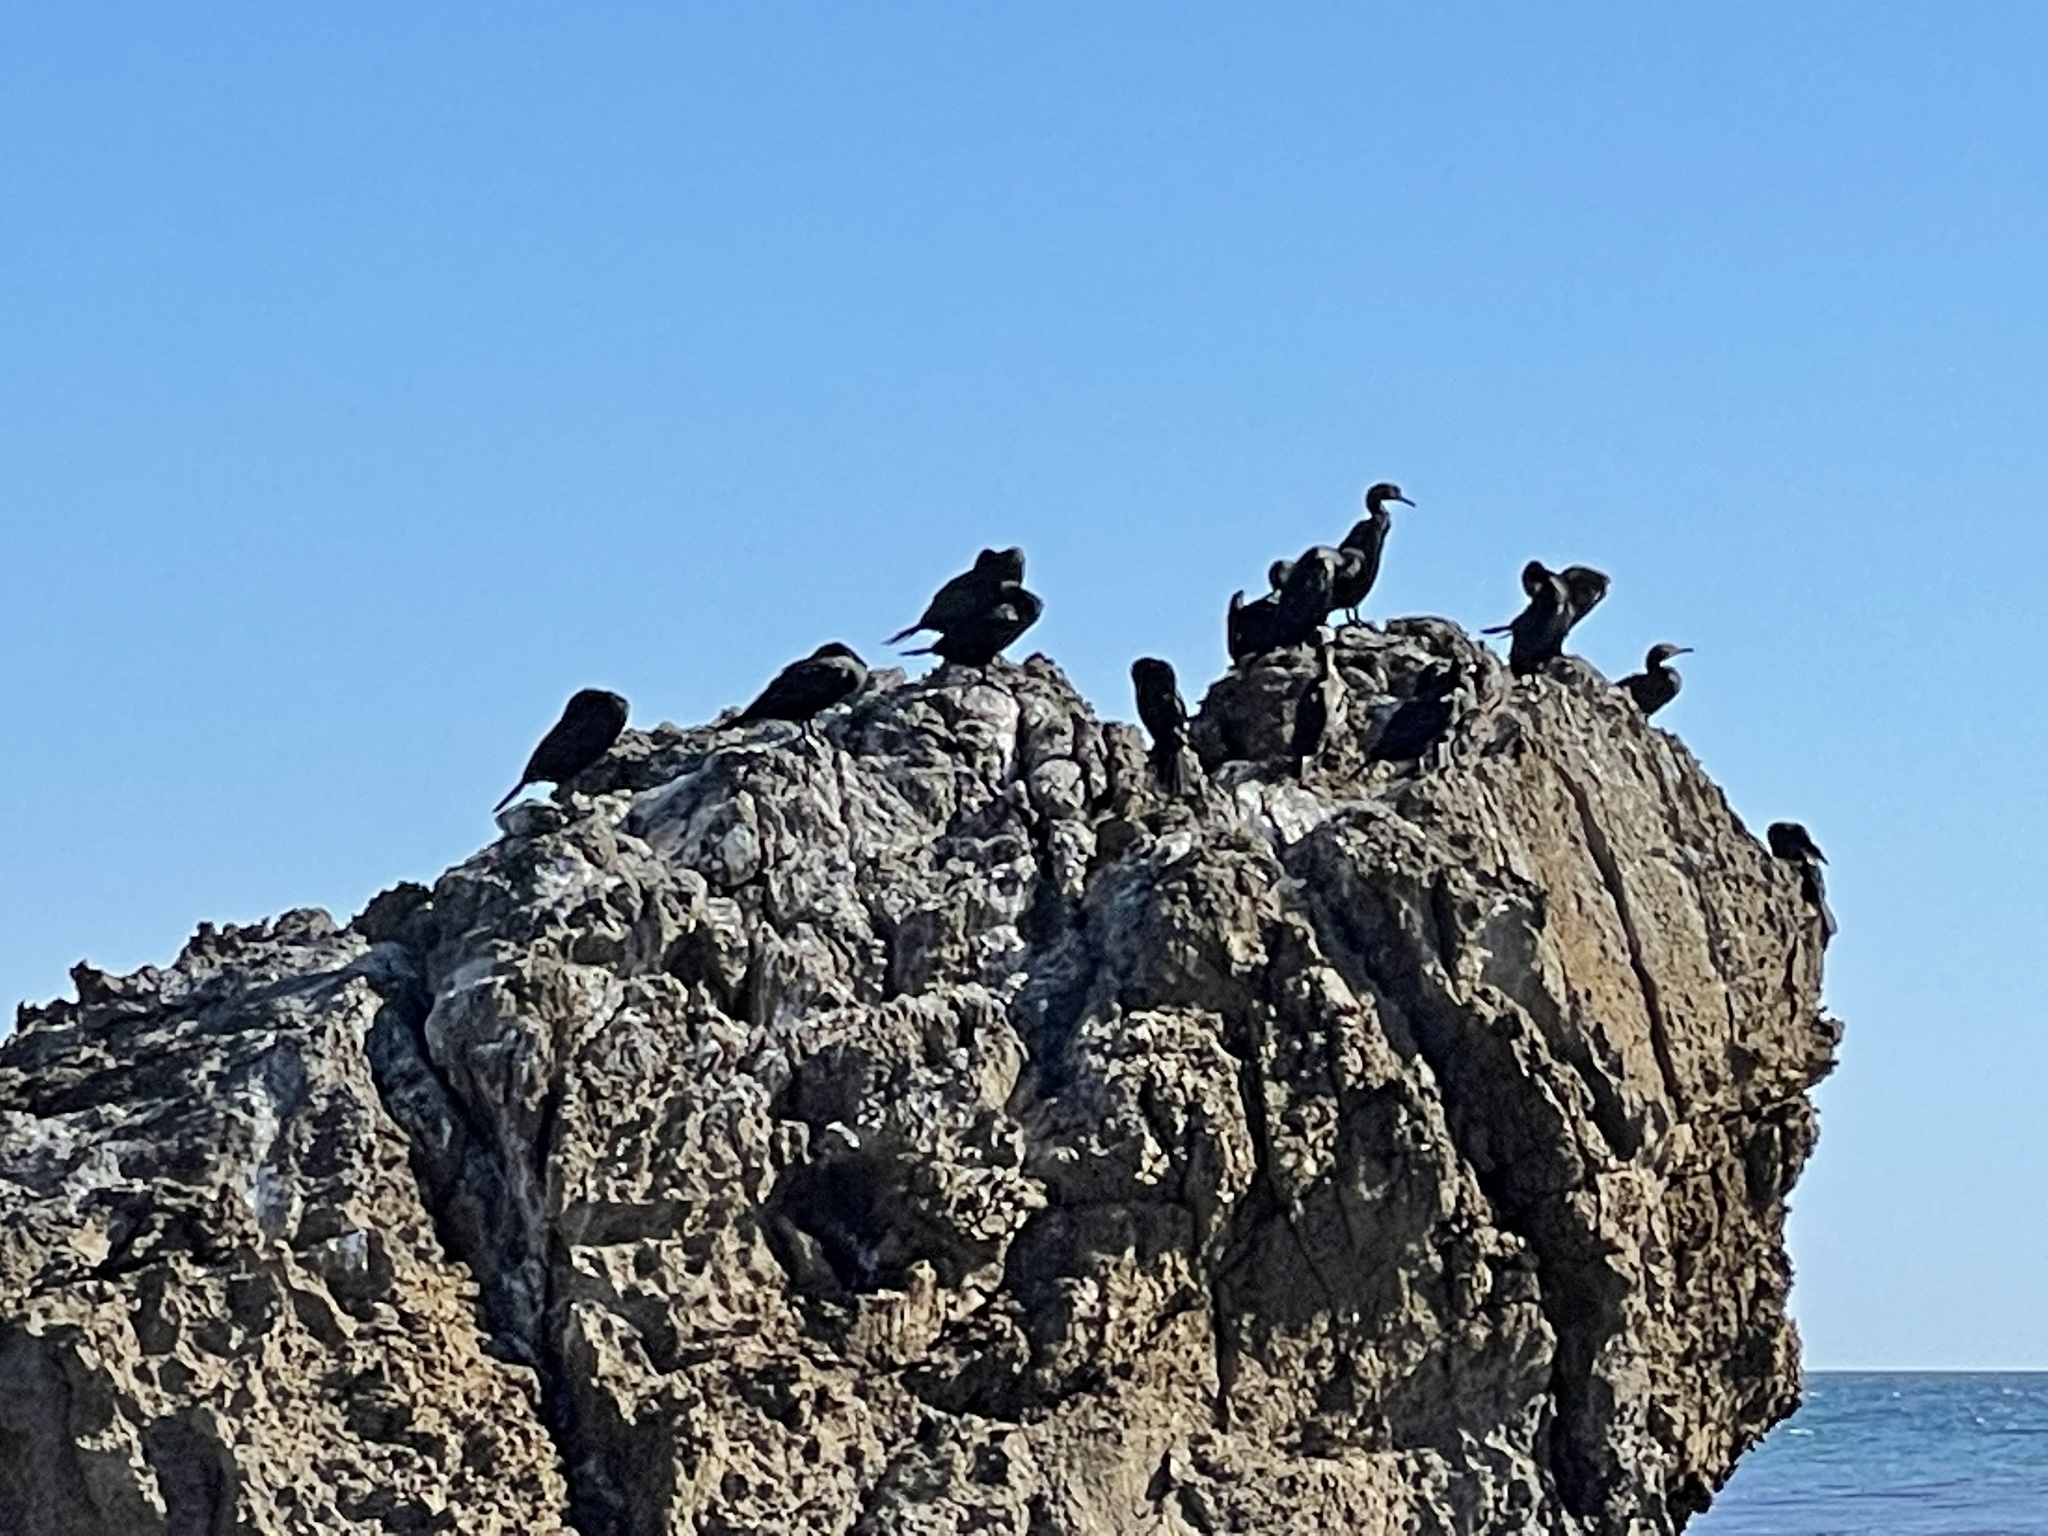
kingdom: Animalia
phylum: Chordata
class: Aves
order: Suliformes
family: Phalacrocoracidae
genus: Urile
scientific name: Urile penicillatus
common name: Brandt's cormorant
